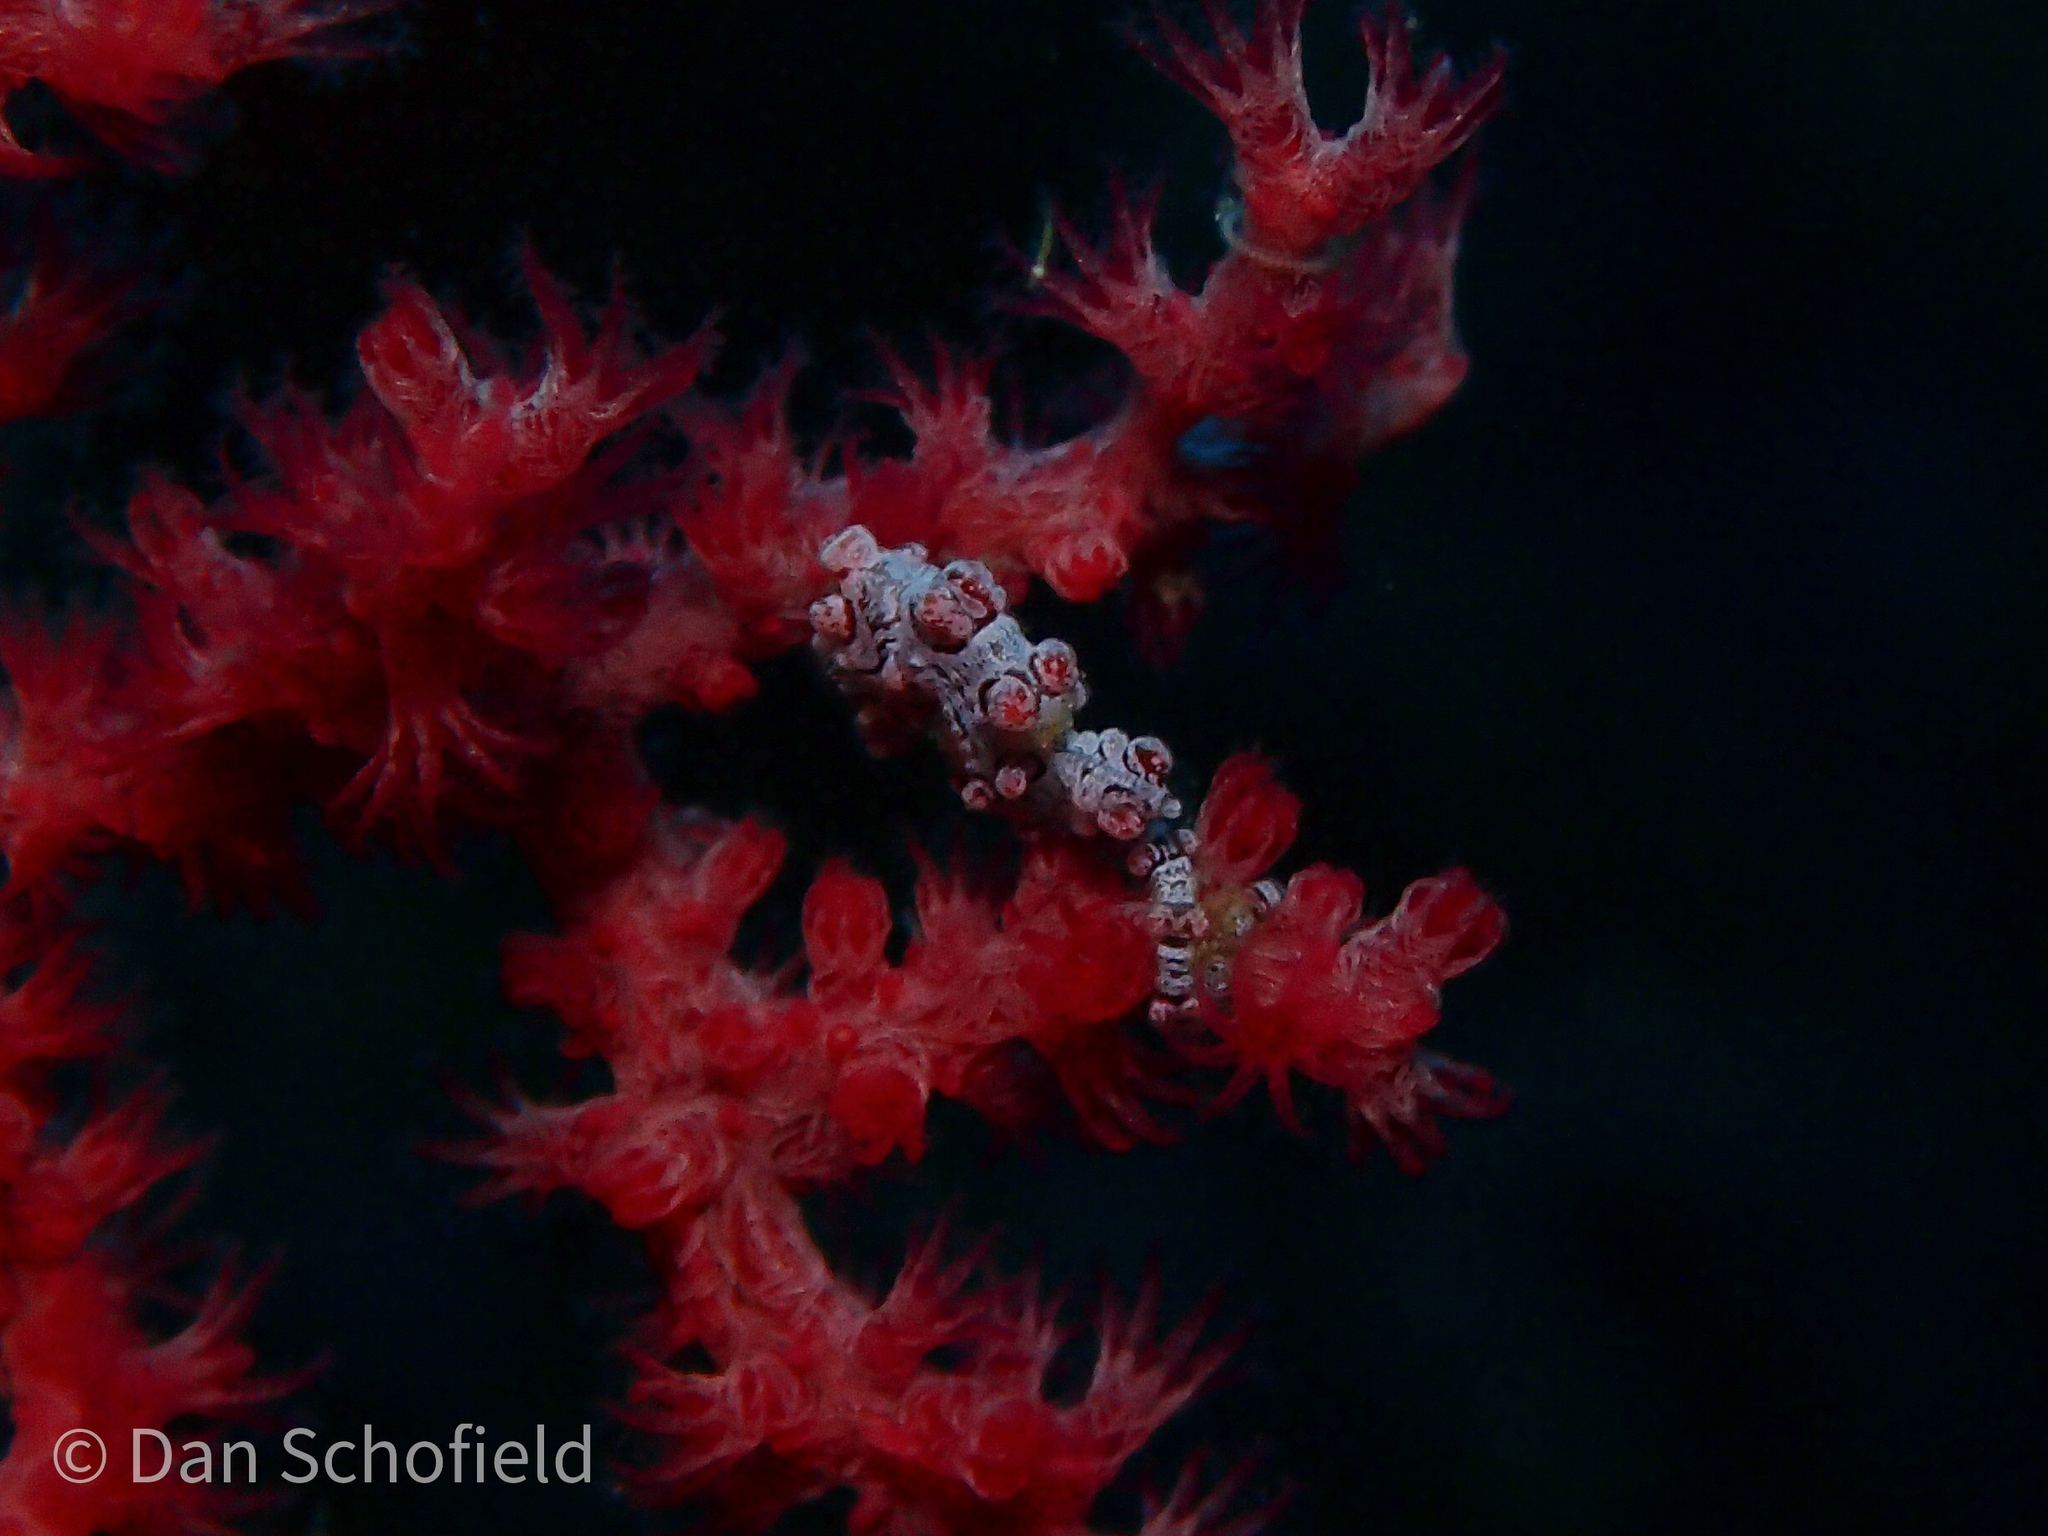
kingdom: Animalia
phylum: Chordata
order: Syngnathiformes
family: Syngnathidae
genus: Hippocampus
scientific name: Hippocampus bargibanti
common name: Bargibant's seahorse
